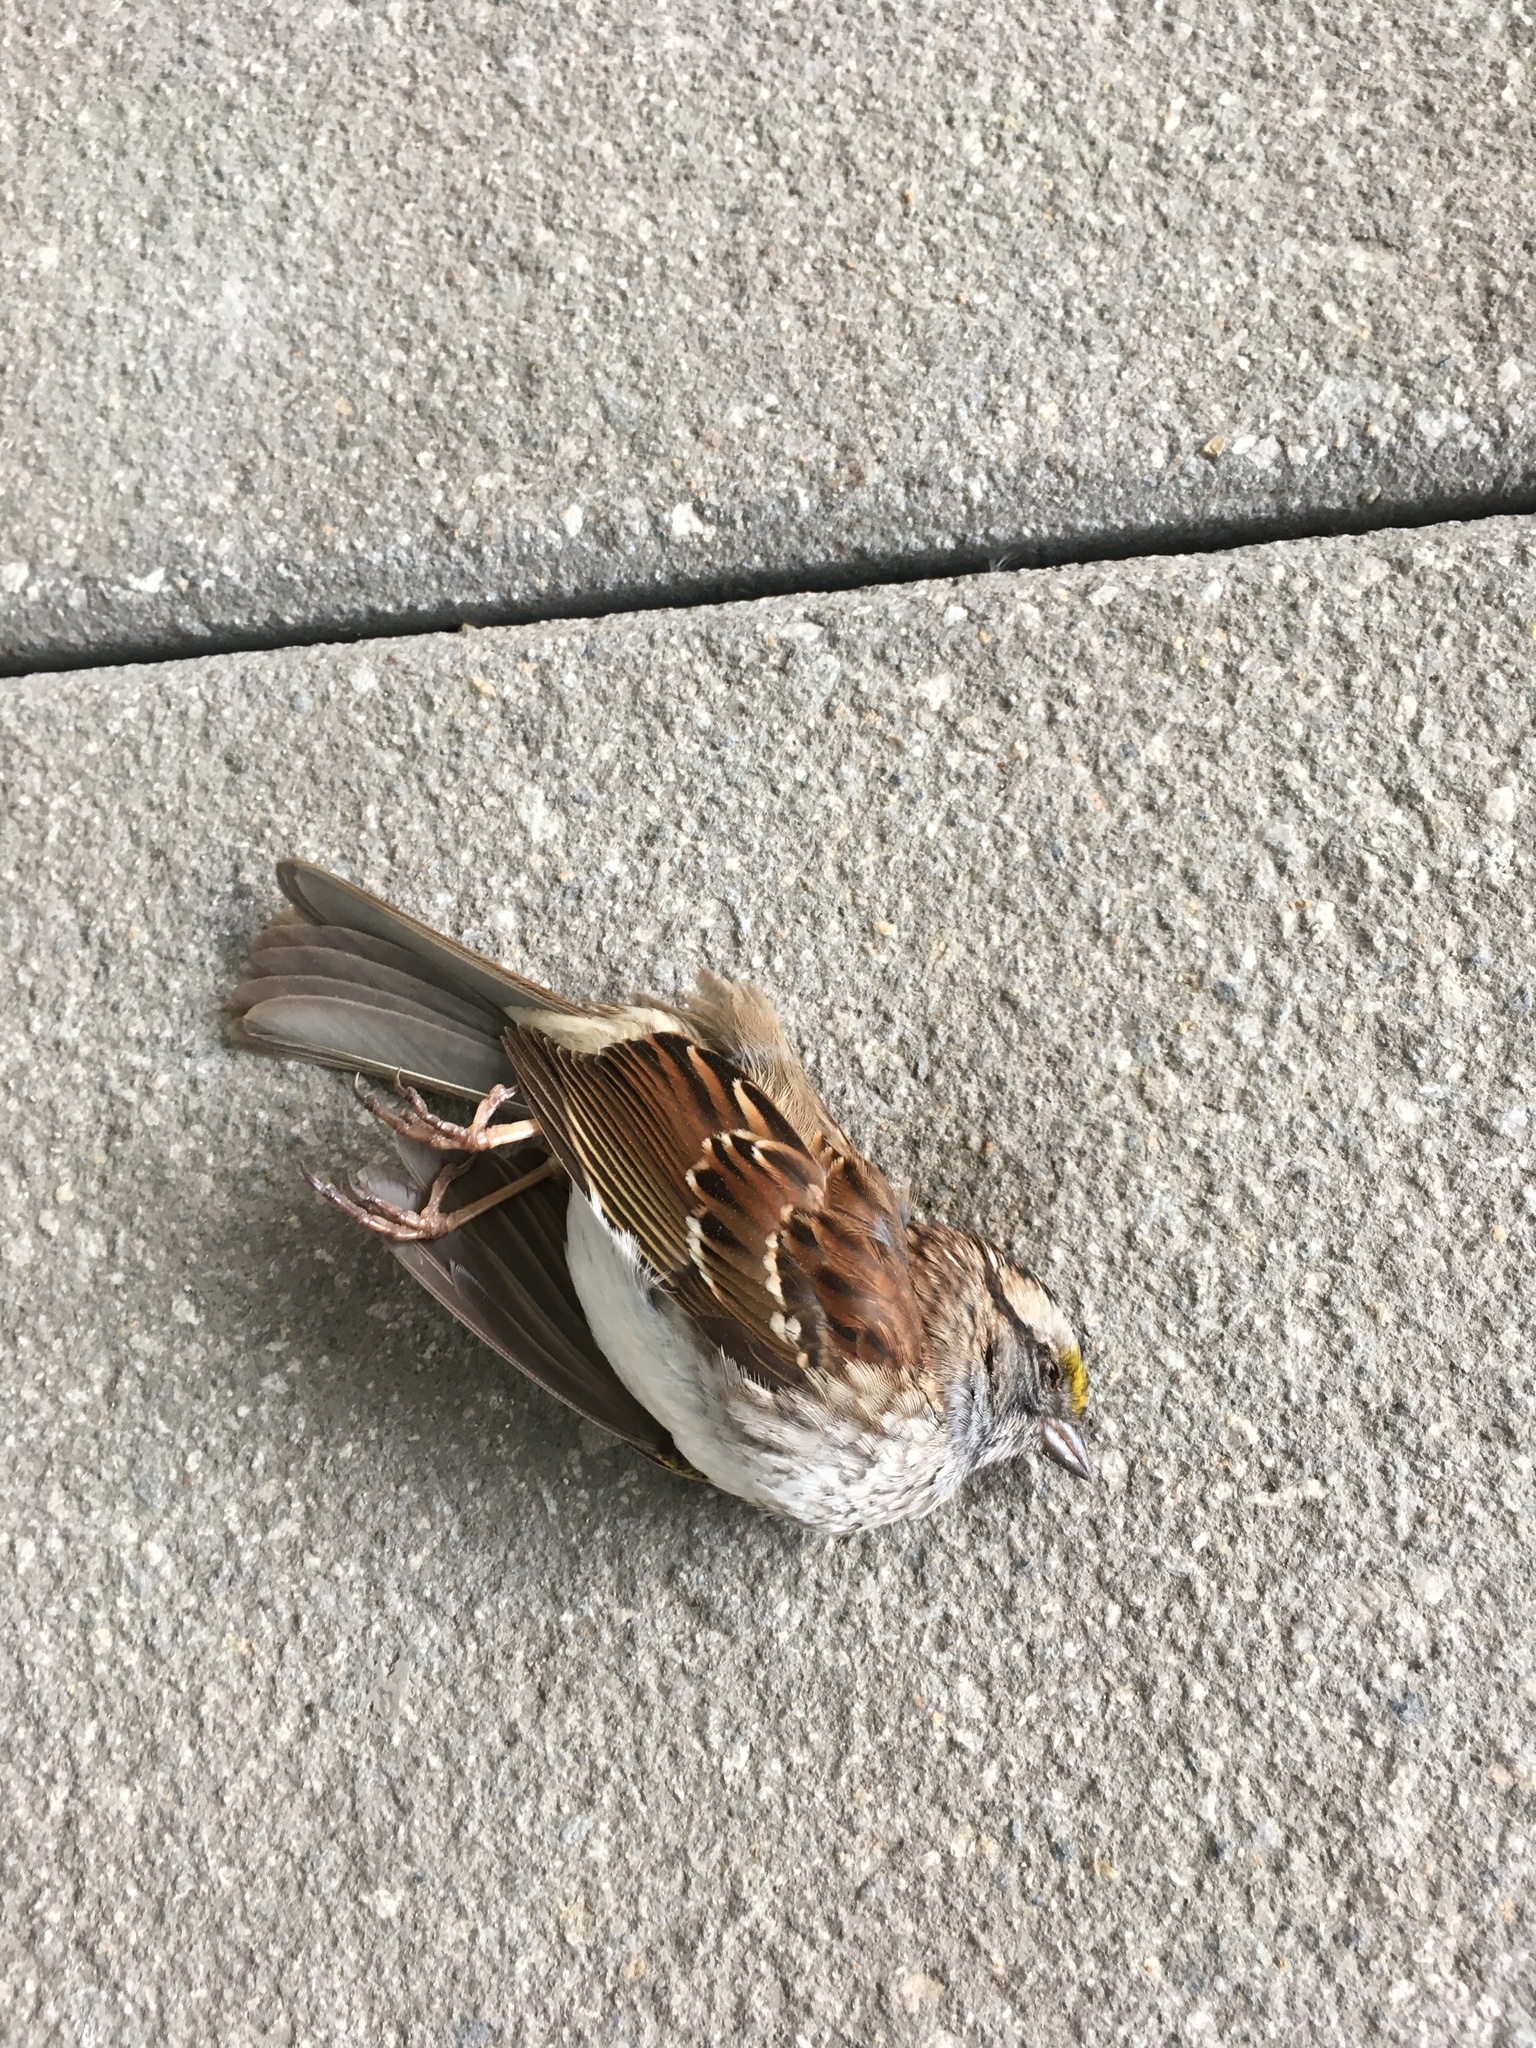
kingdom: Animalia
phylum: Chordata
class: Aves
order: Passeriformes
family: Passerellidae
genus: Zonotrichia
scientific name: Zonotrichia albicollis
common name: White-throated sparrow
